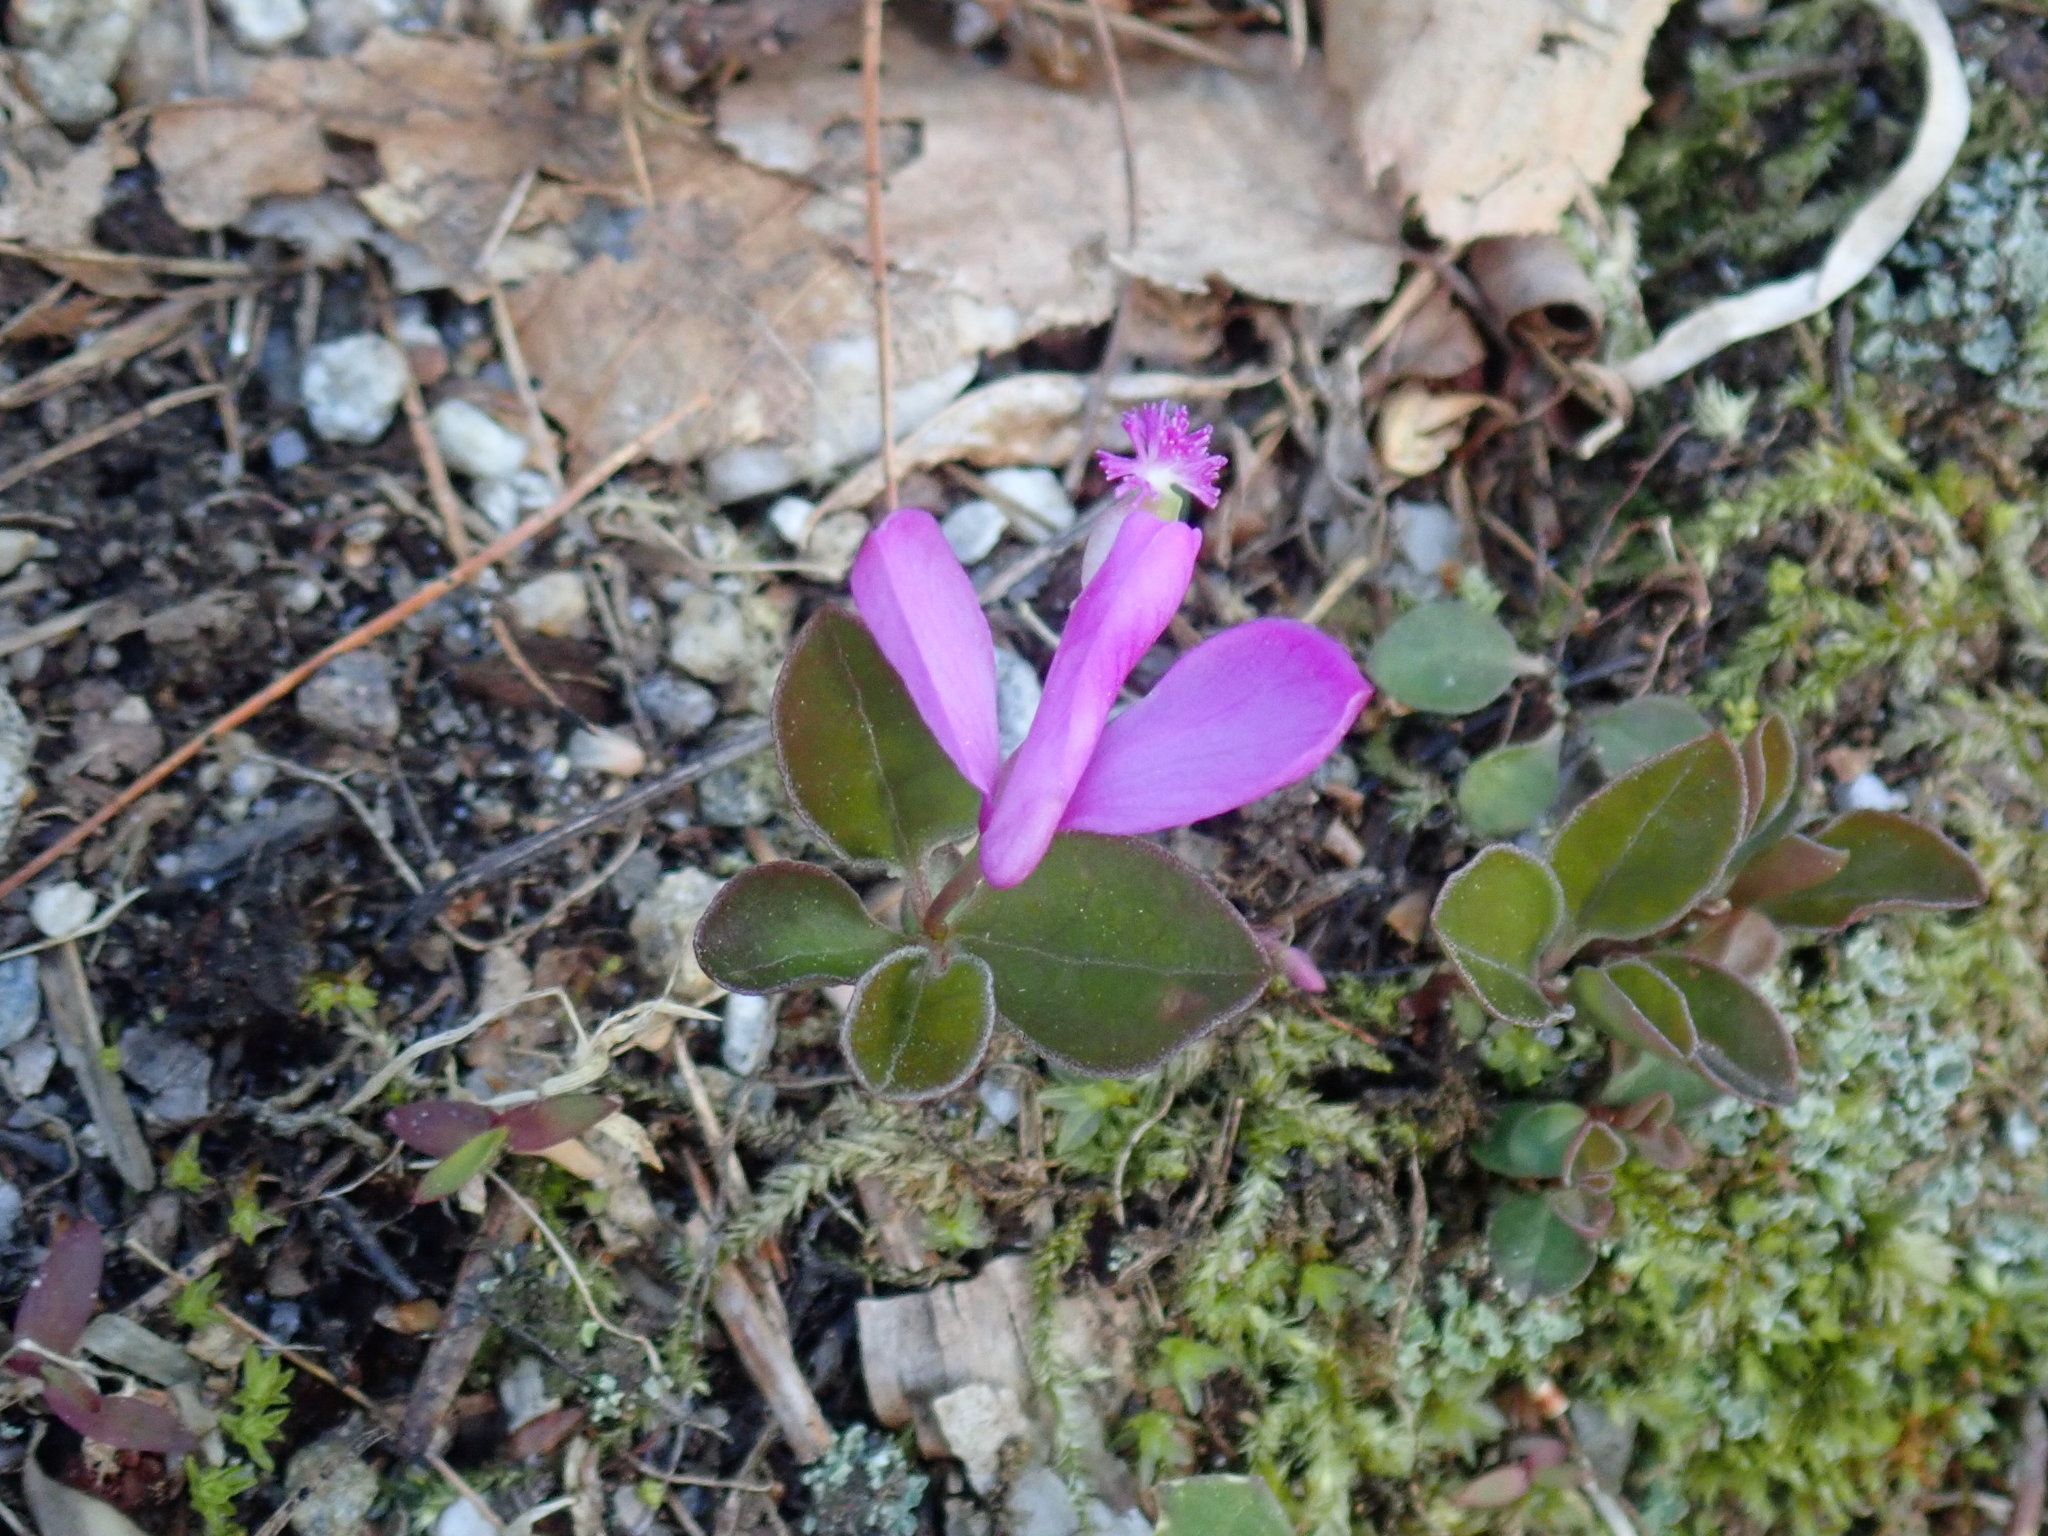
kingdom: Plantae
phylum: Tracheophyta
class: Magnoliopsida
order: Fabales
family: Polygalaceae
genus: Polygaloides
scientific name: Polygaloides paucifolia
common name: Bird-on-the-wing
